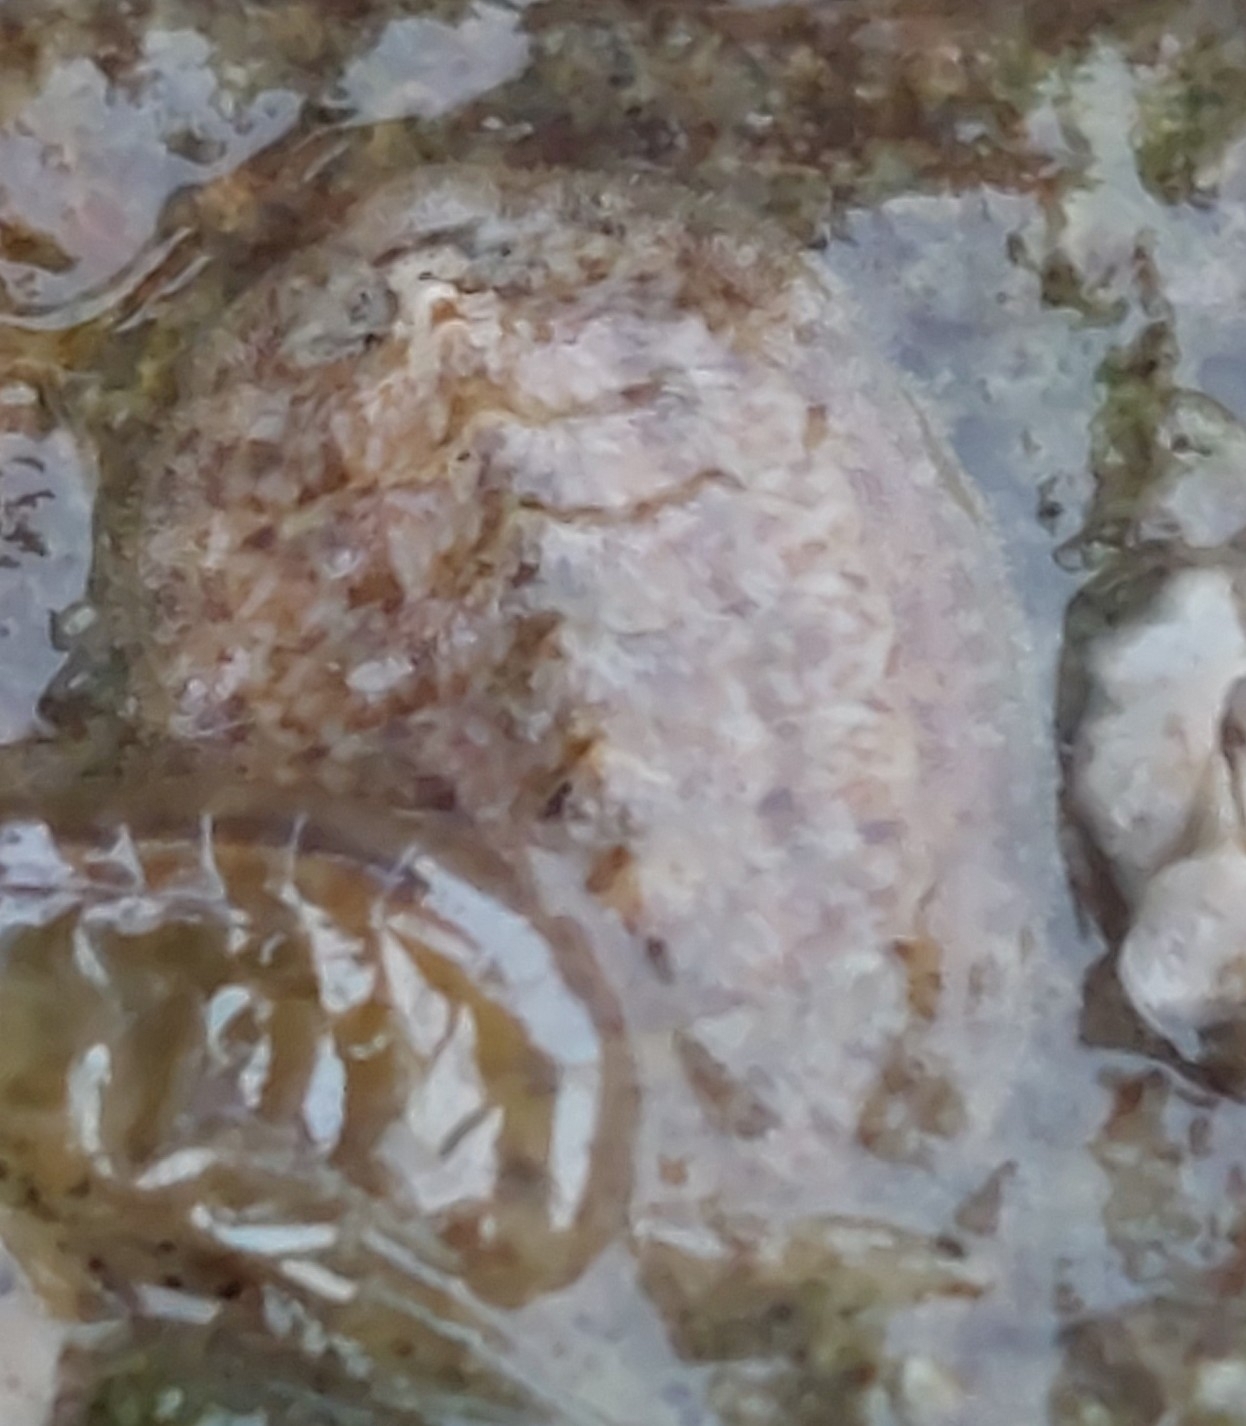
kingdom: Animalia
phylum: Mollusca
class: Polyplacophora
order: Chitonida
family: Tonicellidae
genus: Lepidochitona
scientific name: Lepidochitona cinerea
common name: Cinereous chiton
